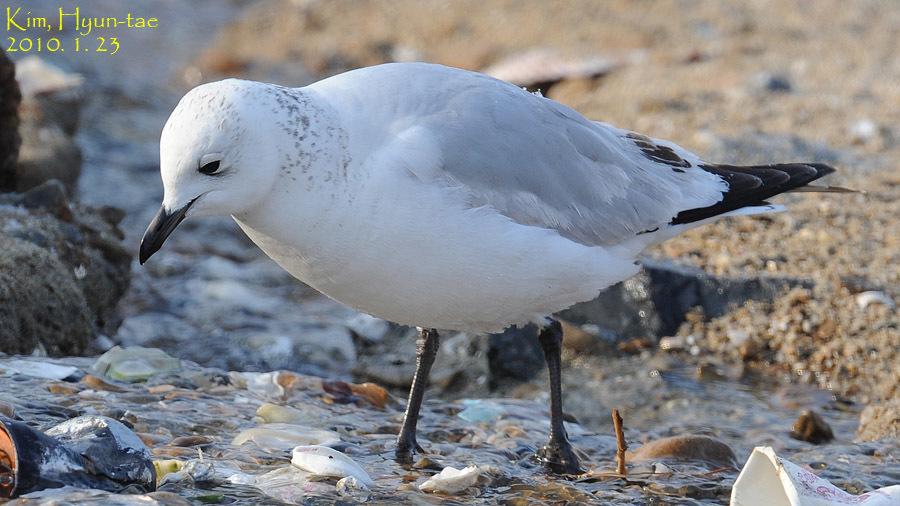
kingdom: Animalia
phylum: Chordata
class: Aves
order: Charadriiformes
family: Laridae
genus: Ichthyaetus
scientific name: Ichthyaetus relictus
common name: Relict gull
